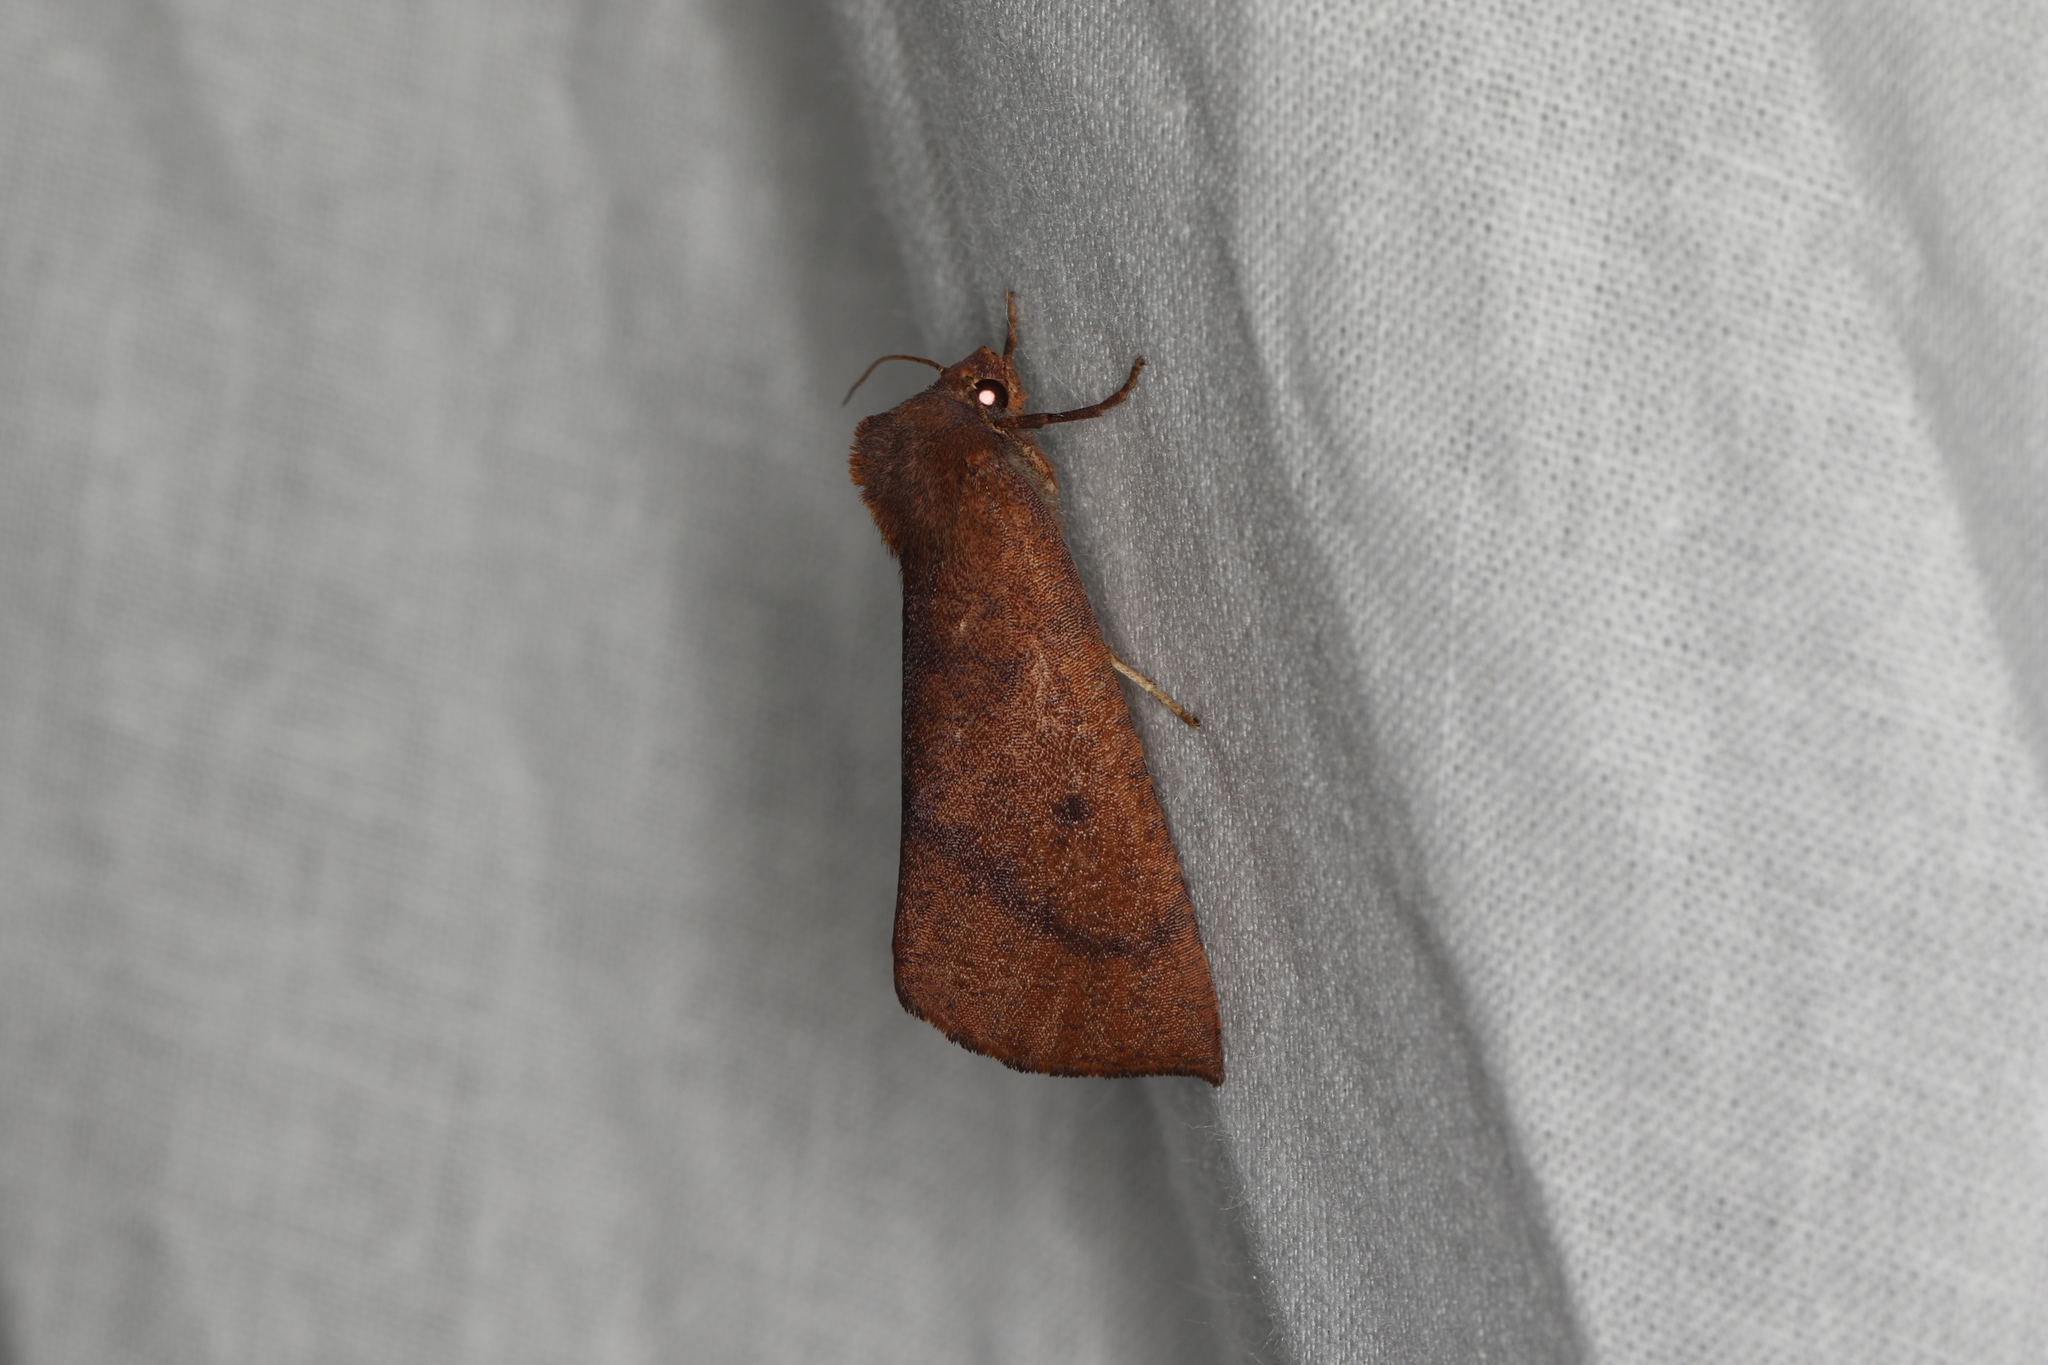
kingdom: Animalia
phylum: Arthropoda
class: Insecta
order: Lepidoptera
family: Geometridae
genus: Fisera
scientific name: Fisera hypoleuca
